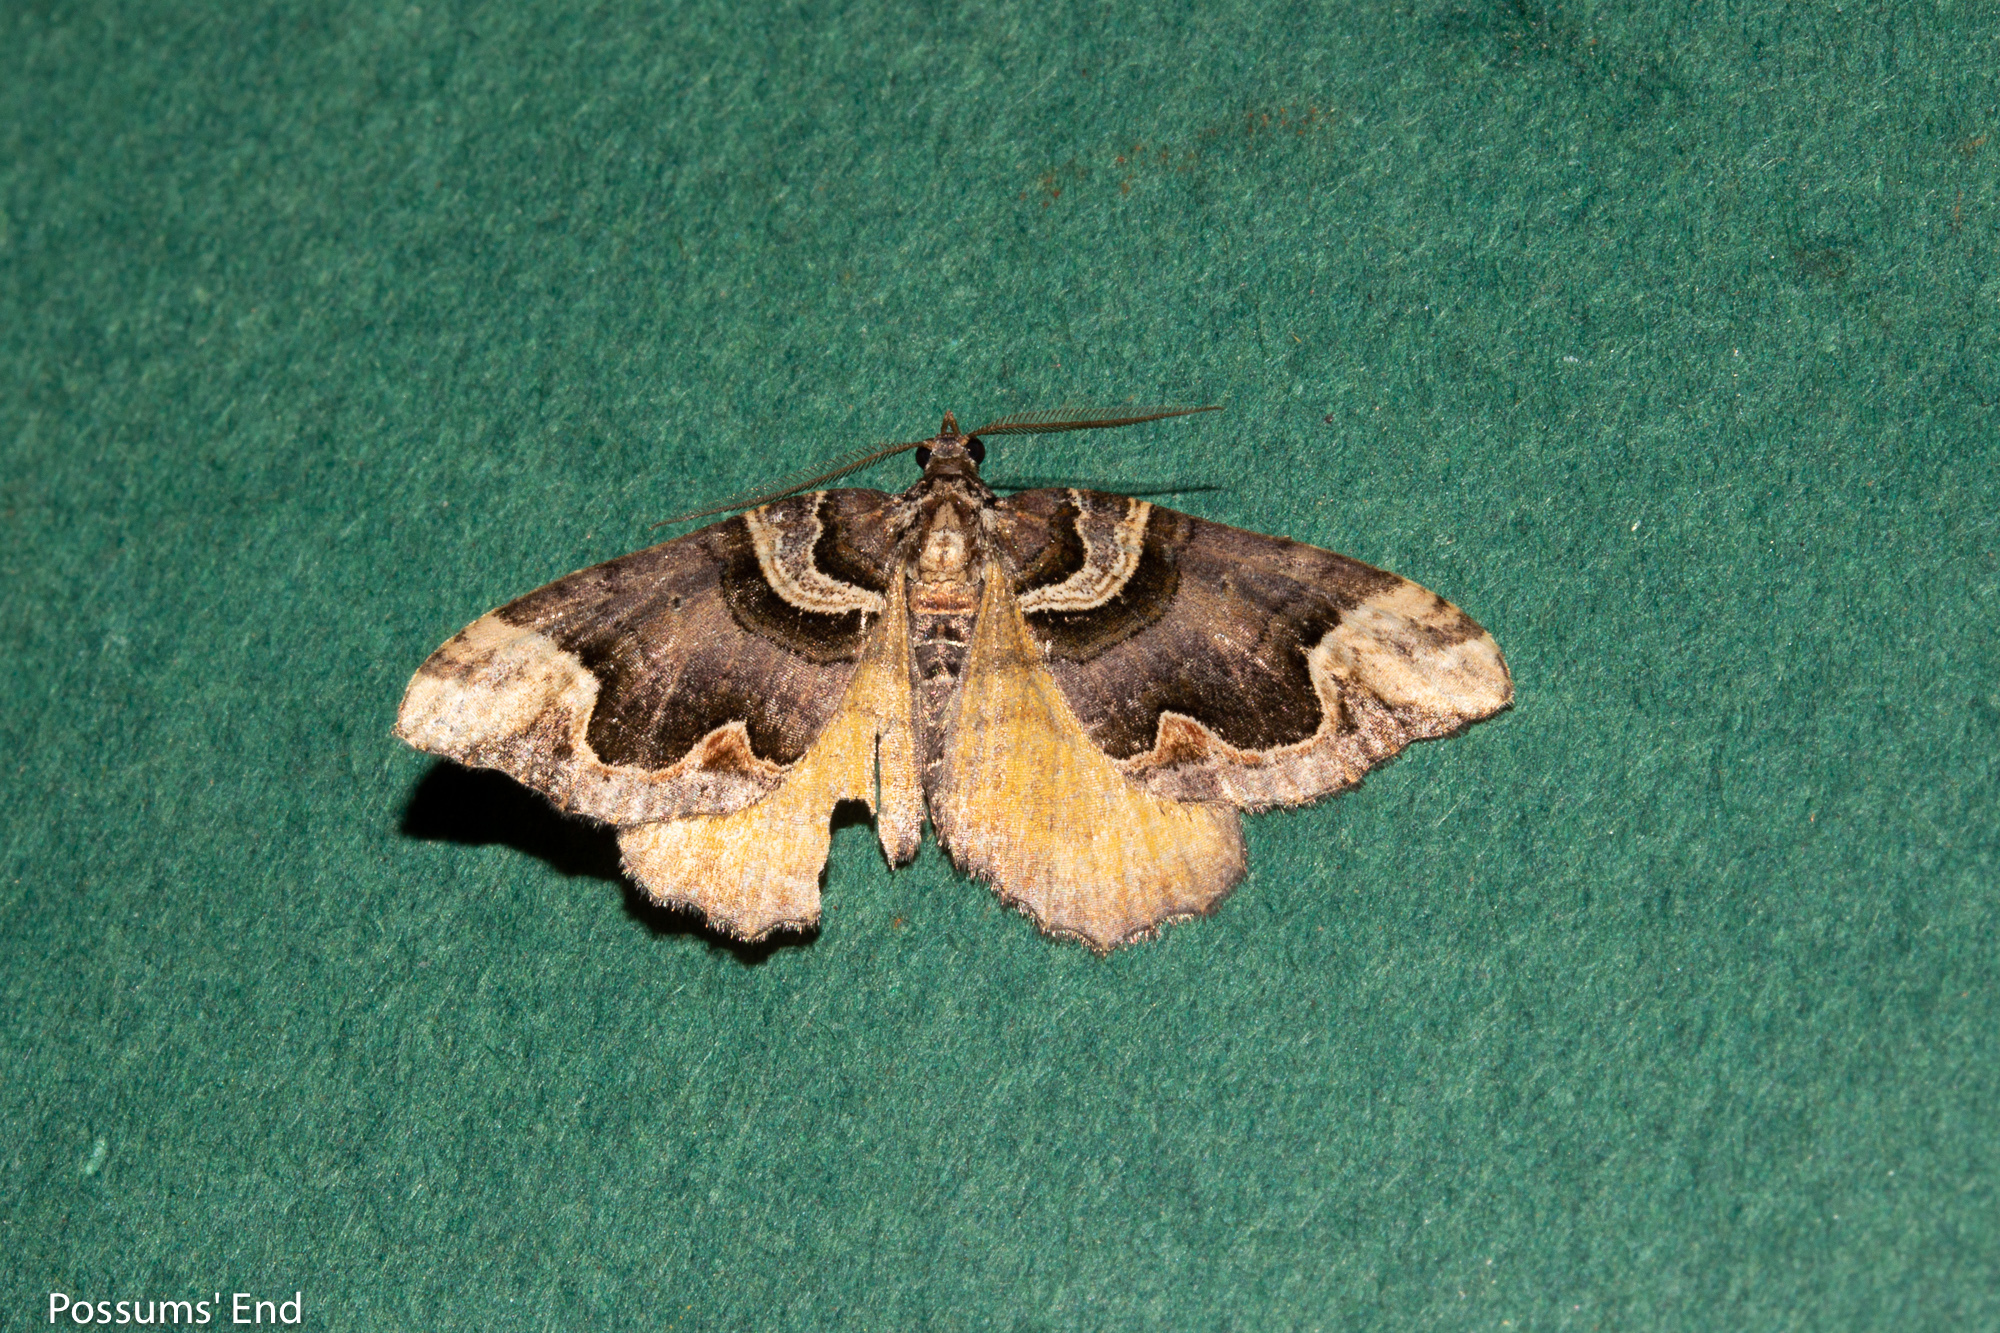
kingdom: Animalia
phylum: Arthropoda
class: Insecta
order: Lepidoptera
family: Geometridae
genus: Asaphodes
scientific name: Asaphodes chlamydota
